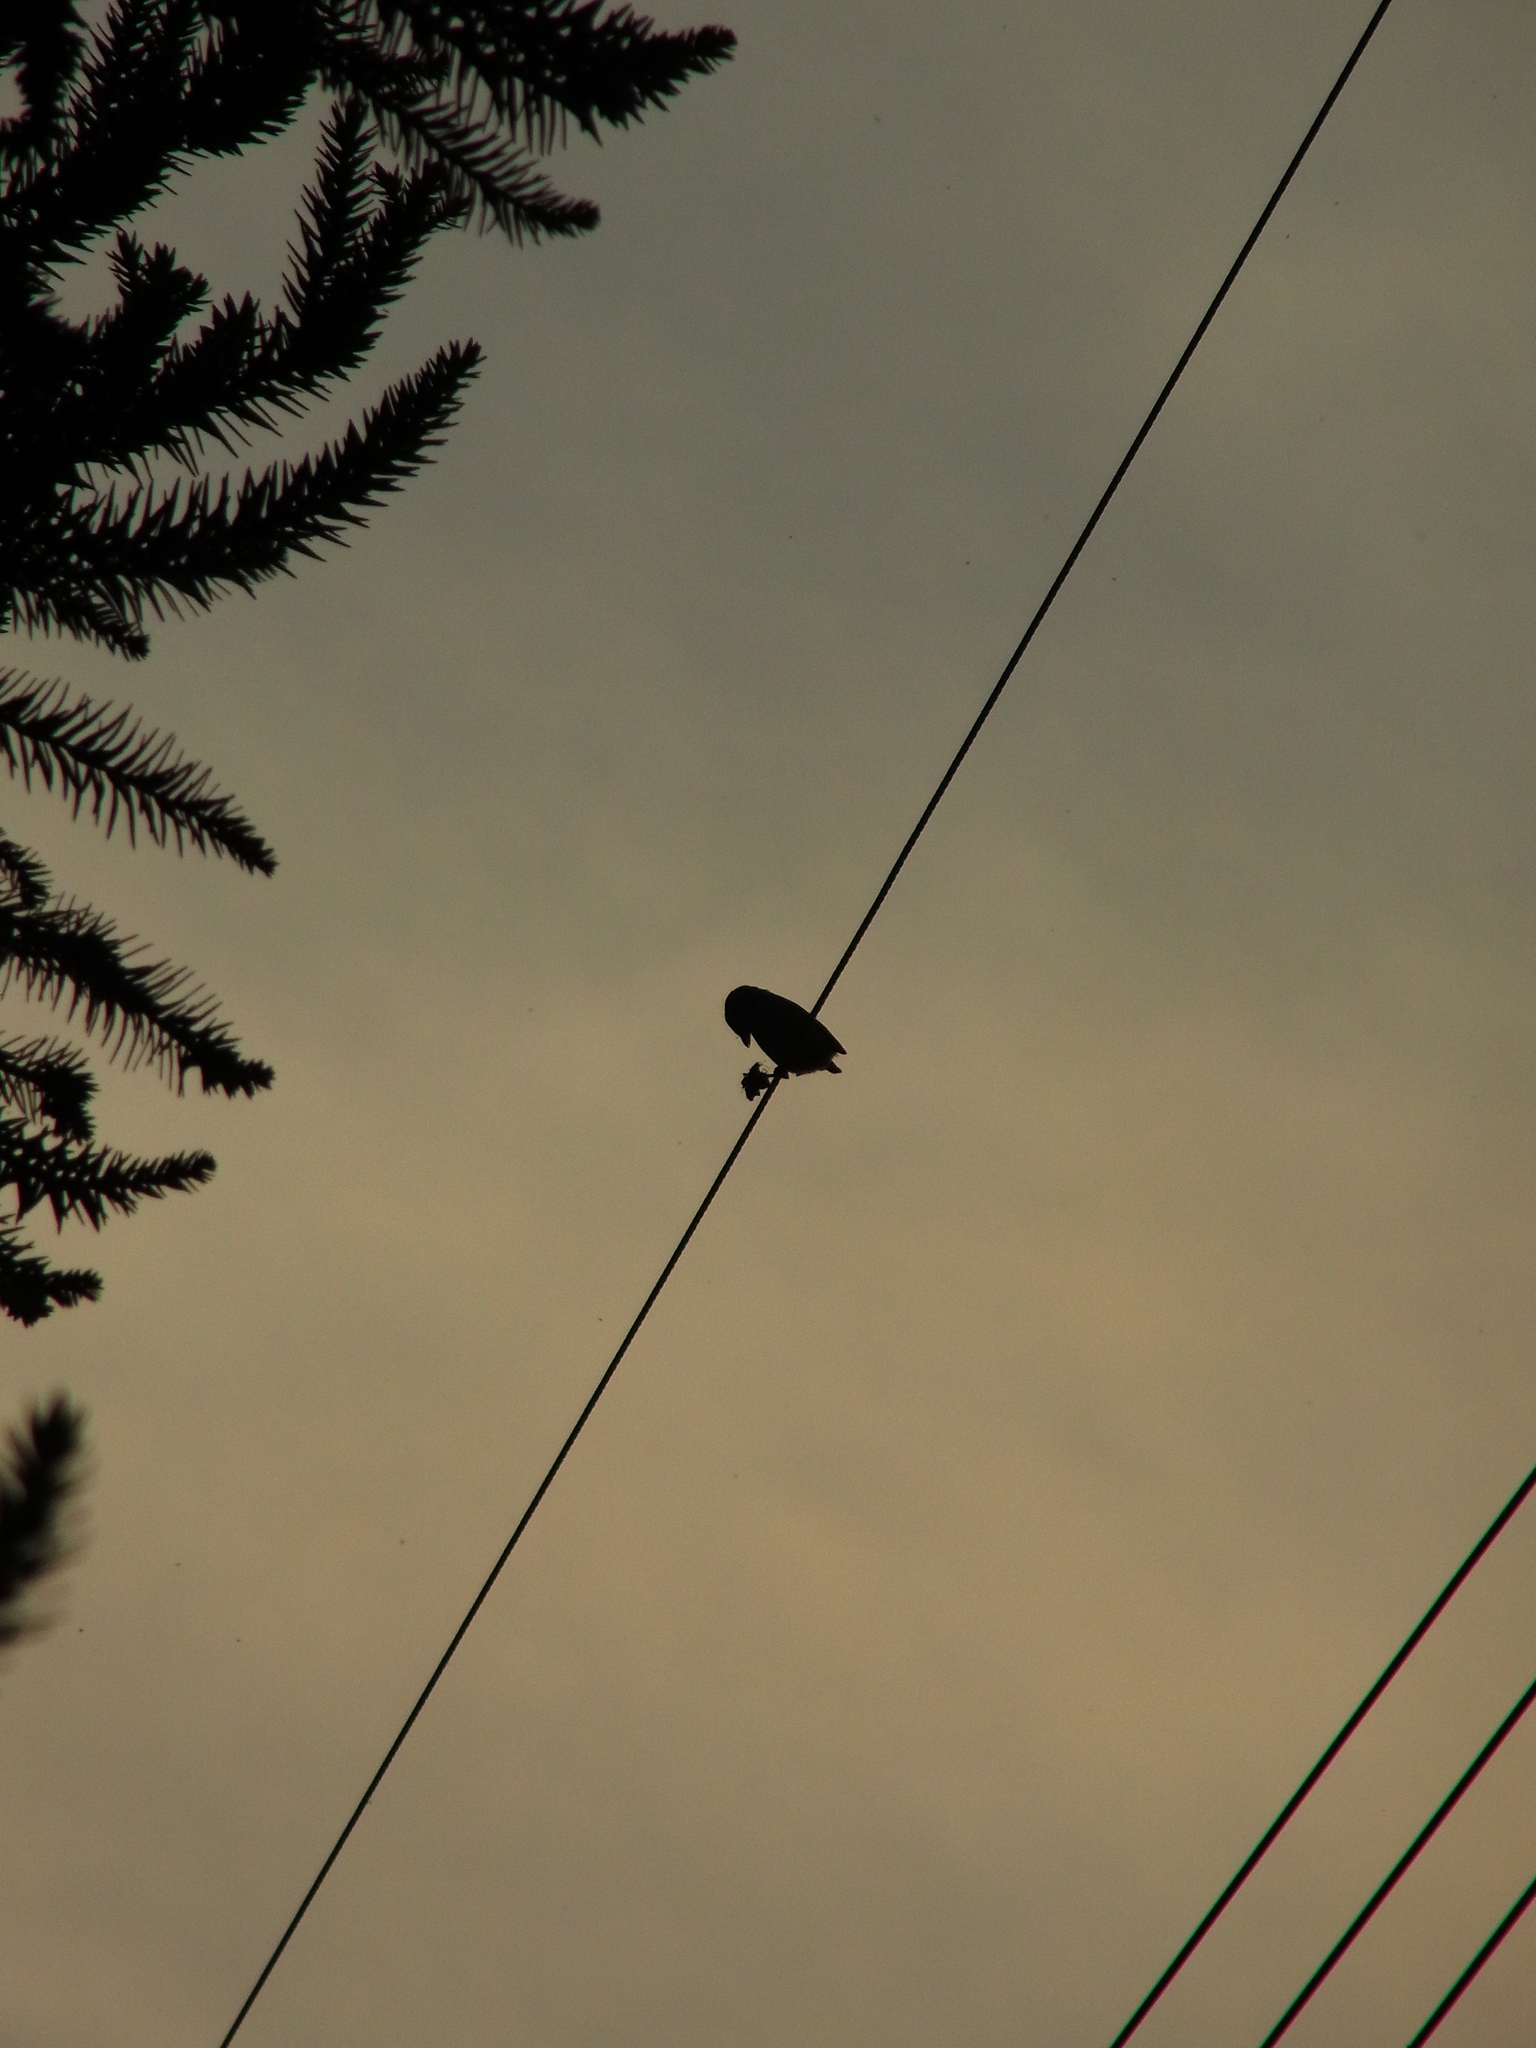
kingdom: Animalia
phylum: Chordata
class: Aves
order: Passeriformes
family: Laniidae
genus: Lanius
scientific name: Lanius bucephalus
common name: Bull-headed shrike
